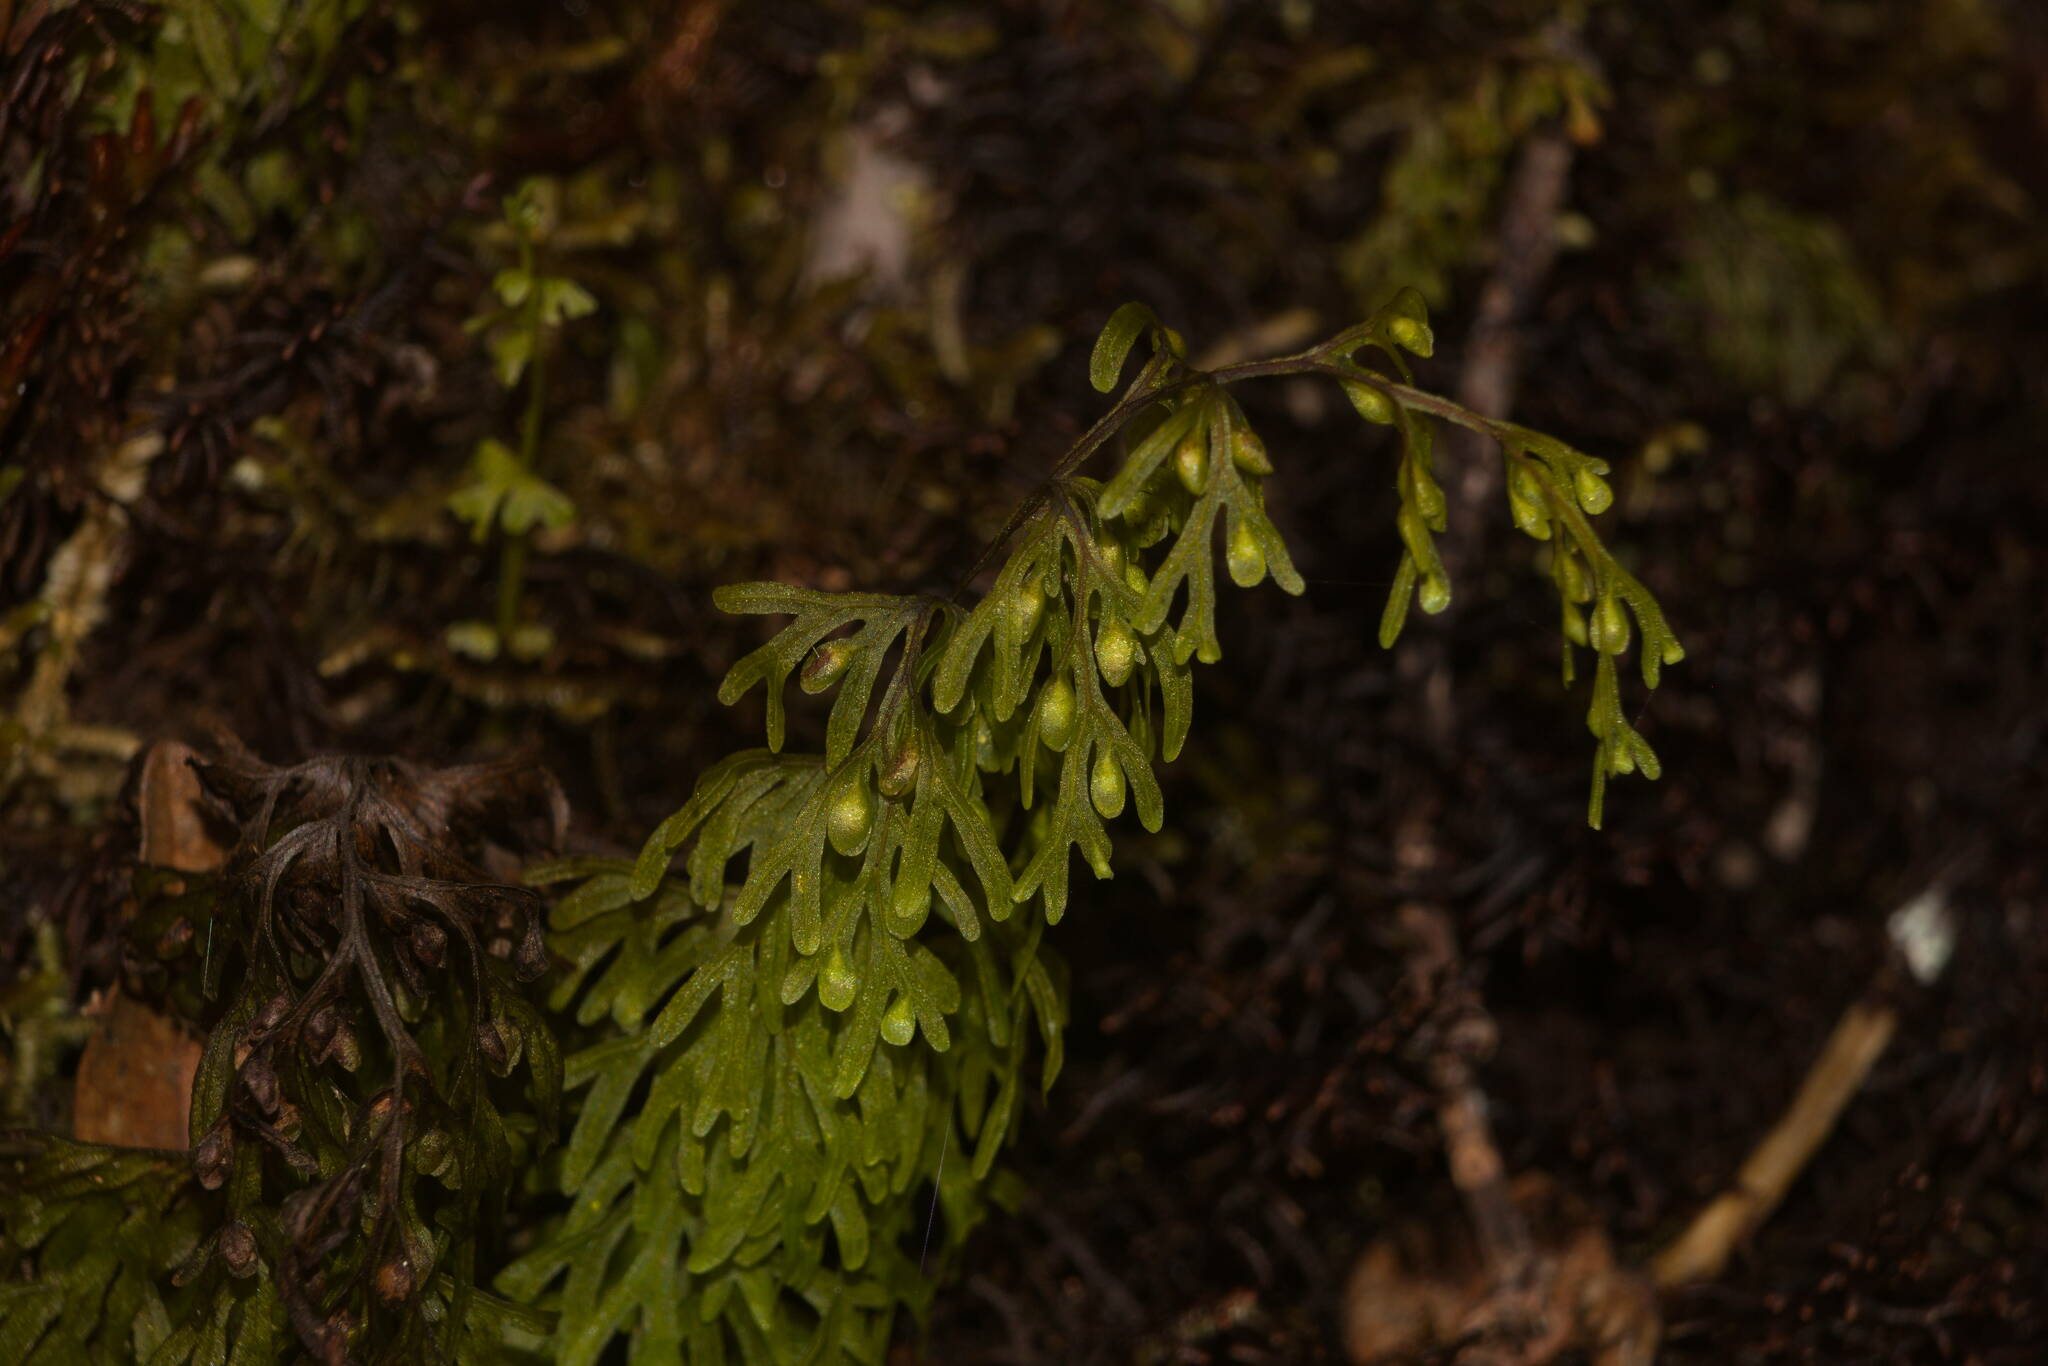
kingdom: Plantae
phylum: Tracheophyta
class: Polypodiopsida
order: Hymenophyllales
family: Hymenophyllaceae
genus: Hymenophyllum
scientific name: Hymenophyllum lanceolatum
